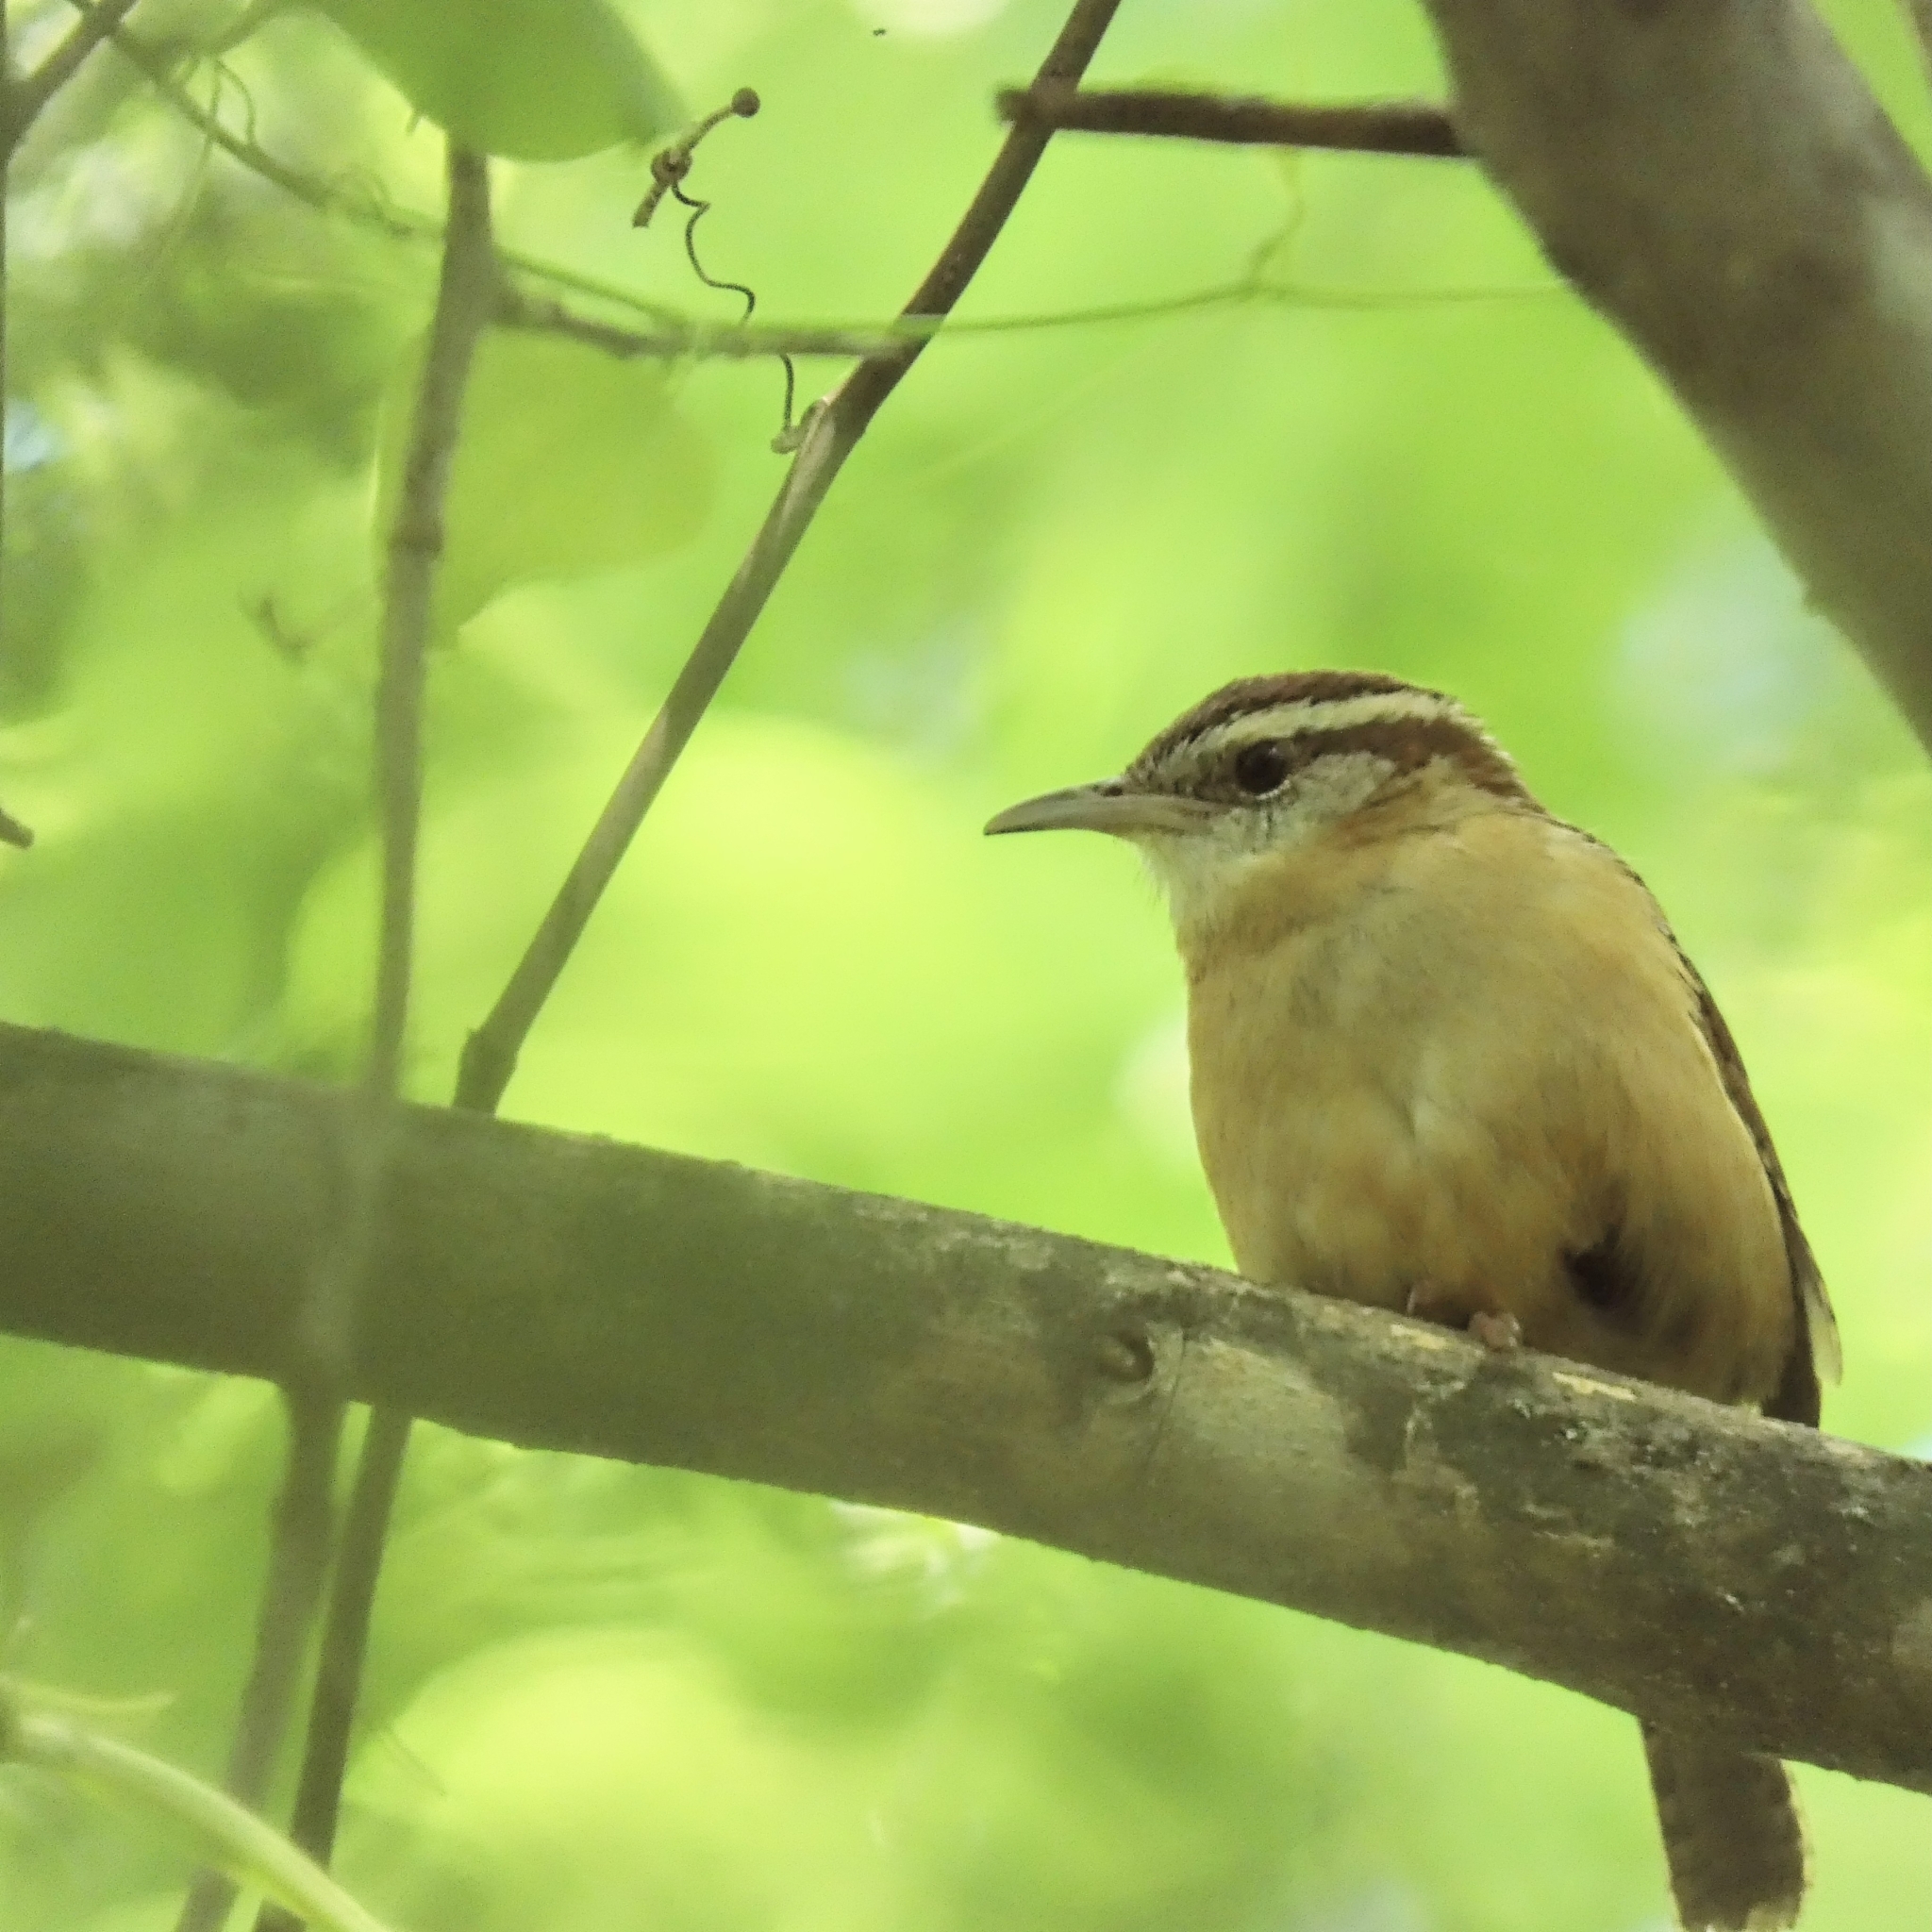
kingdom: Animalia
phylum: Chordata
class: Aves
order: Passeriformes
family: Troglodytidae
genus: Thryothorus
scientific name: Thryothorus ludovicianus
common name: Carolina wren
